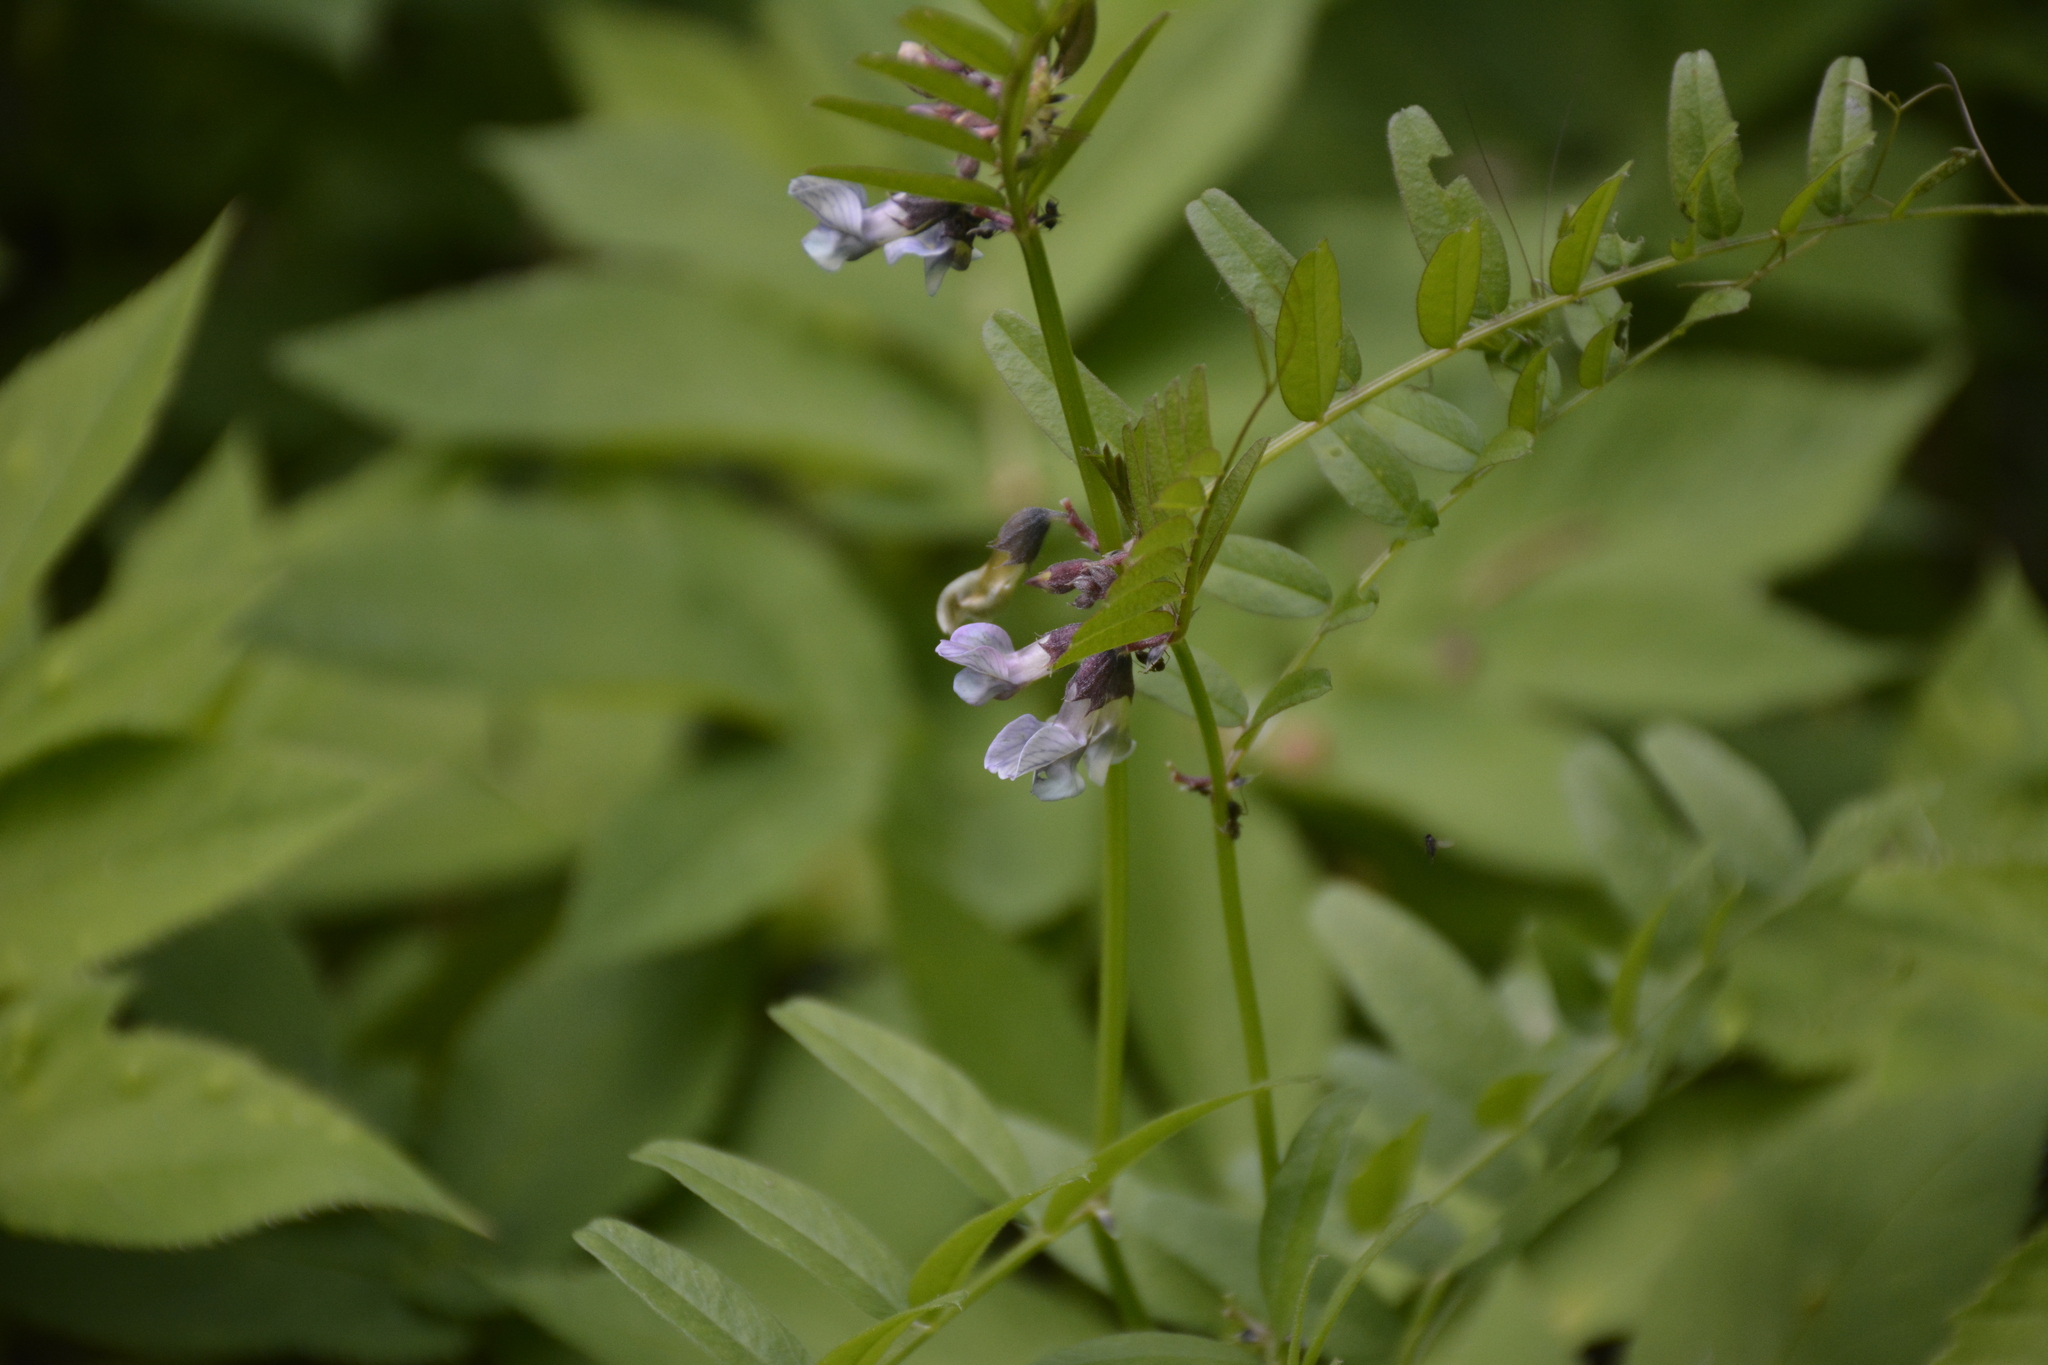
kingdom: Plantae
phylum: Tracheophyta
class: Magnoliopsida
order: Fabales
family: Fabaceae
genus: Vicia
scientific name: Vicia sepium
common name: Bush vetch
